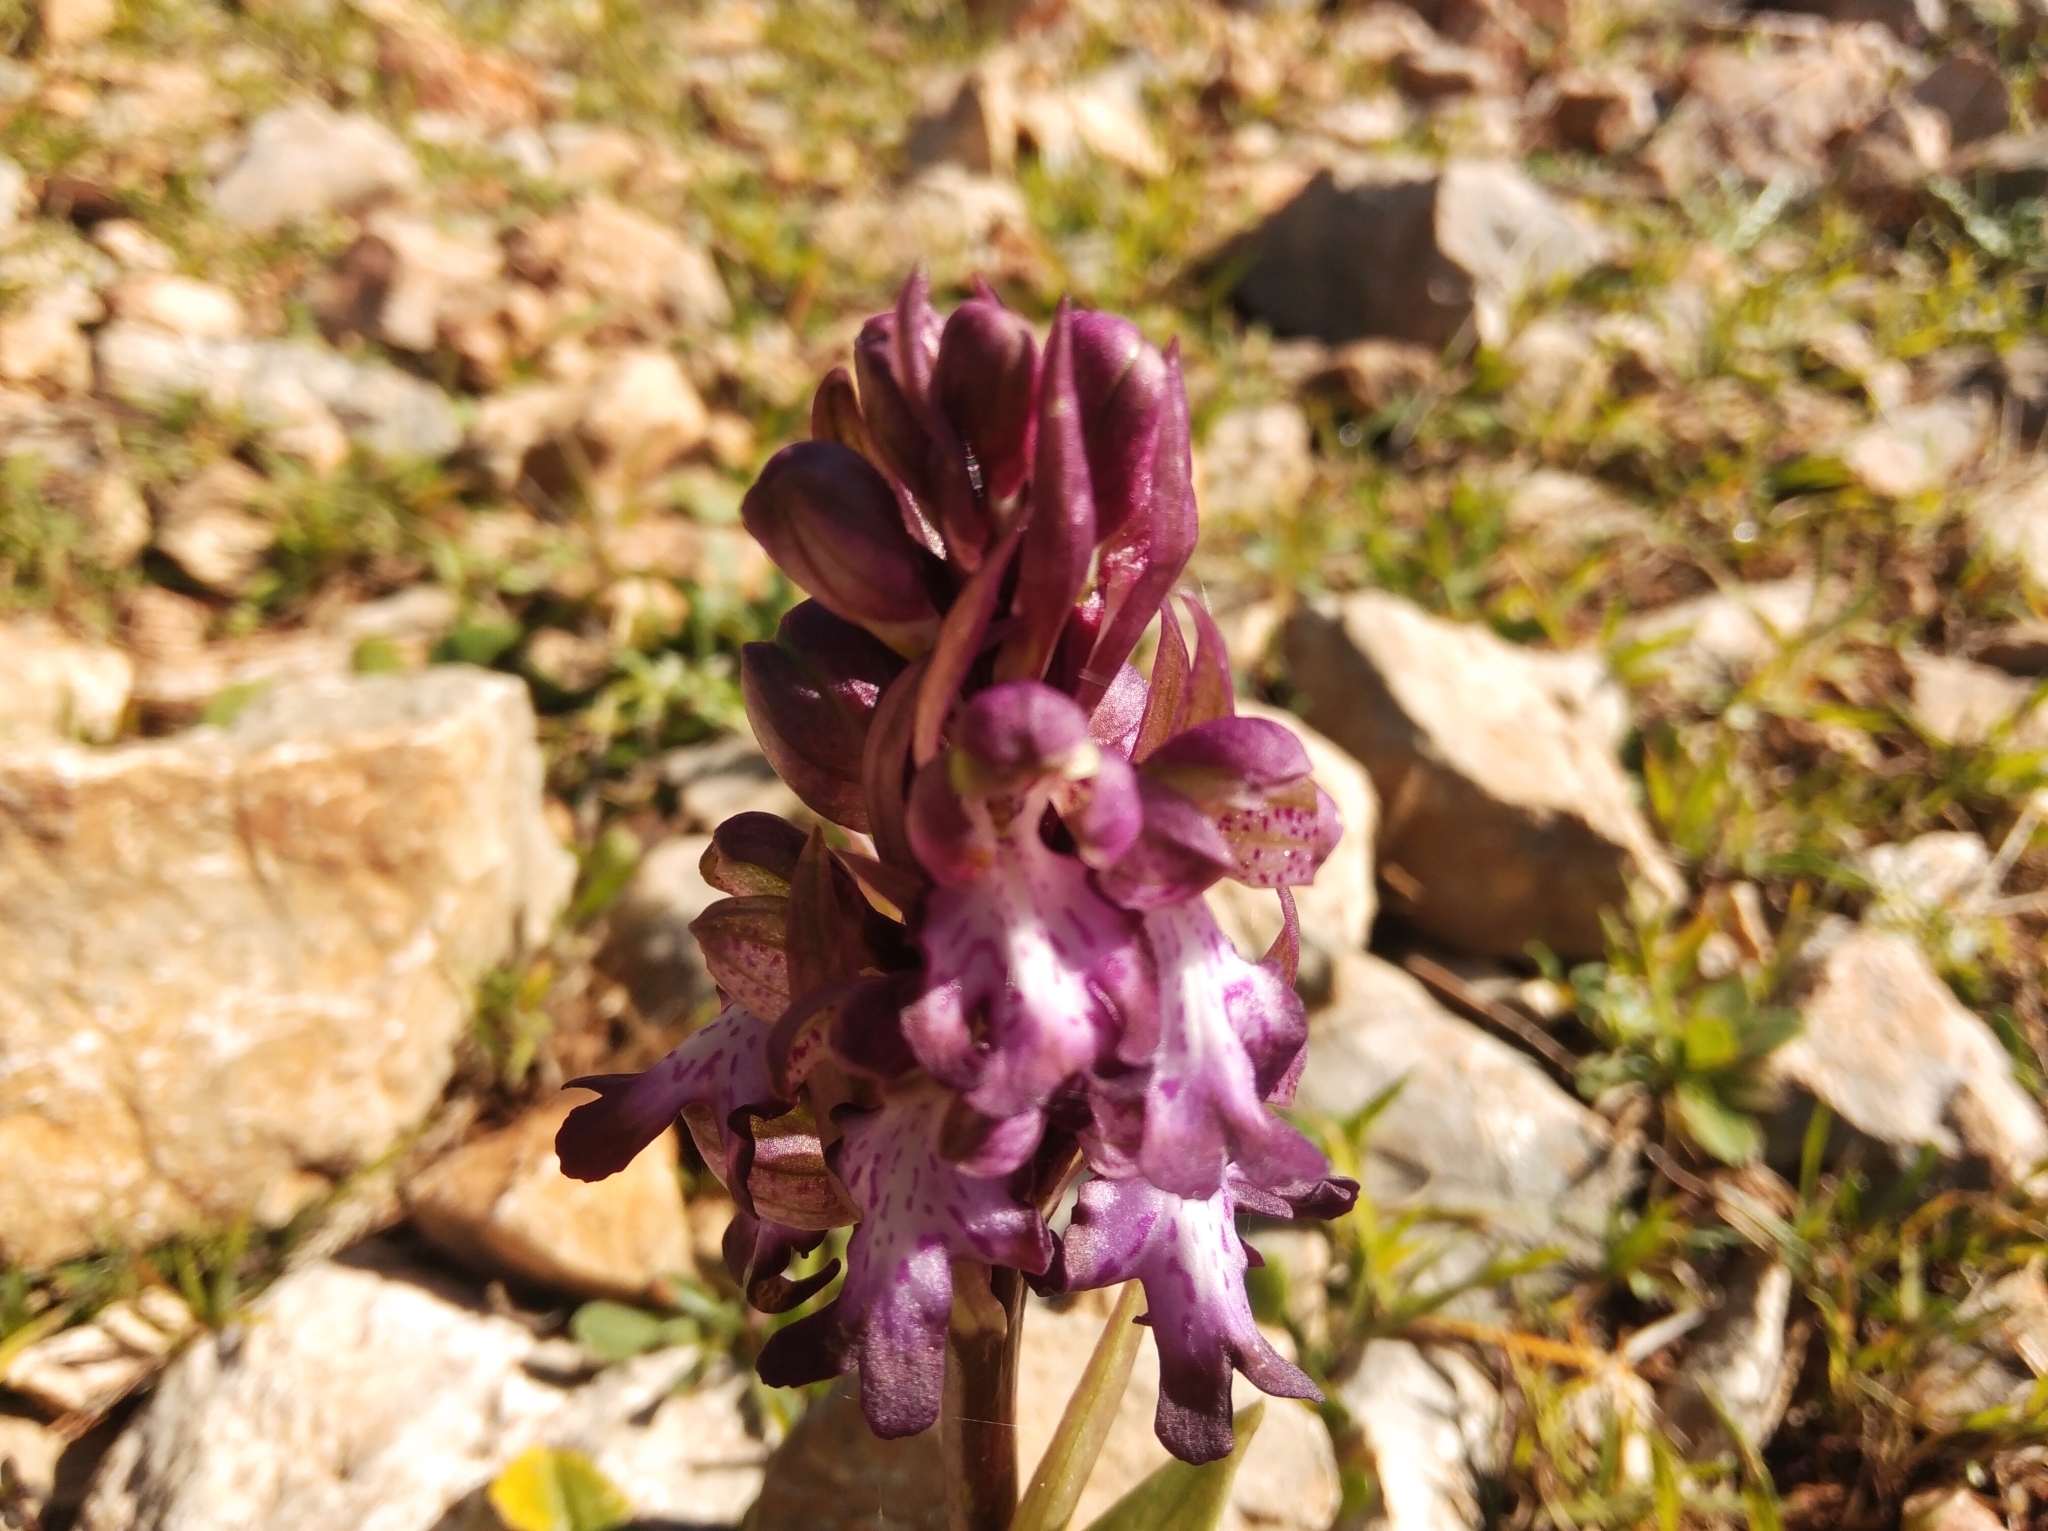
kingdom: Plantae
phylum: Tracheophyta
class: Liliopsida
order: Asparagales
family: Orchidaceae
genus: Himantoglossum
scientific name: Himantoglossum robertianum
